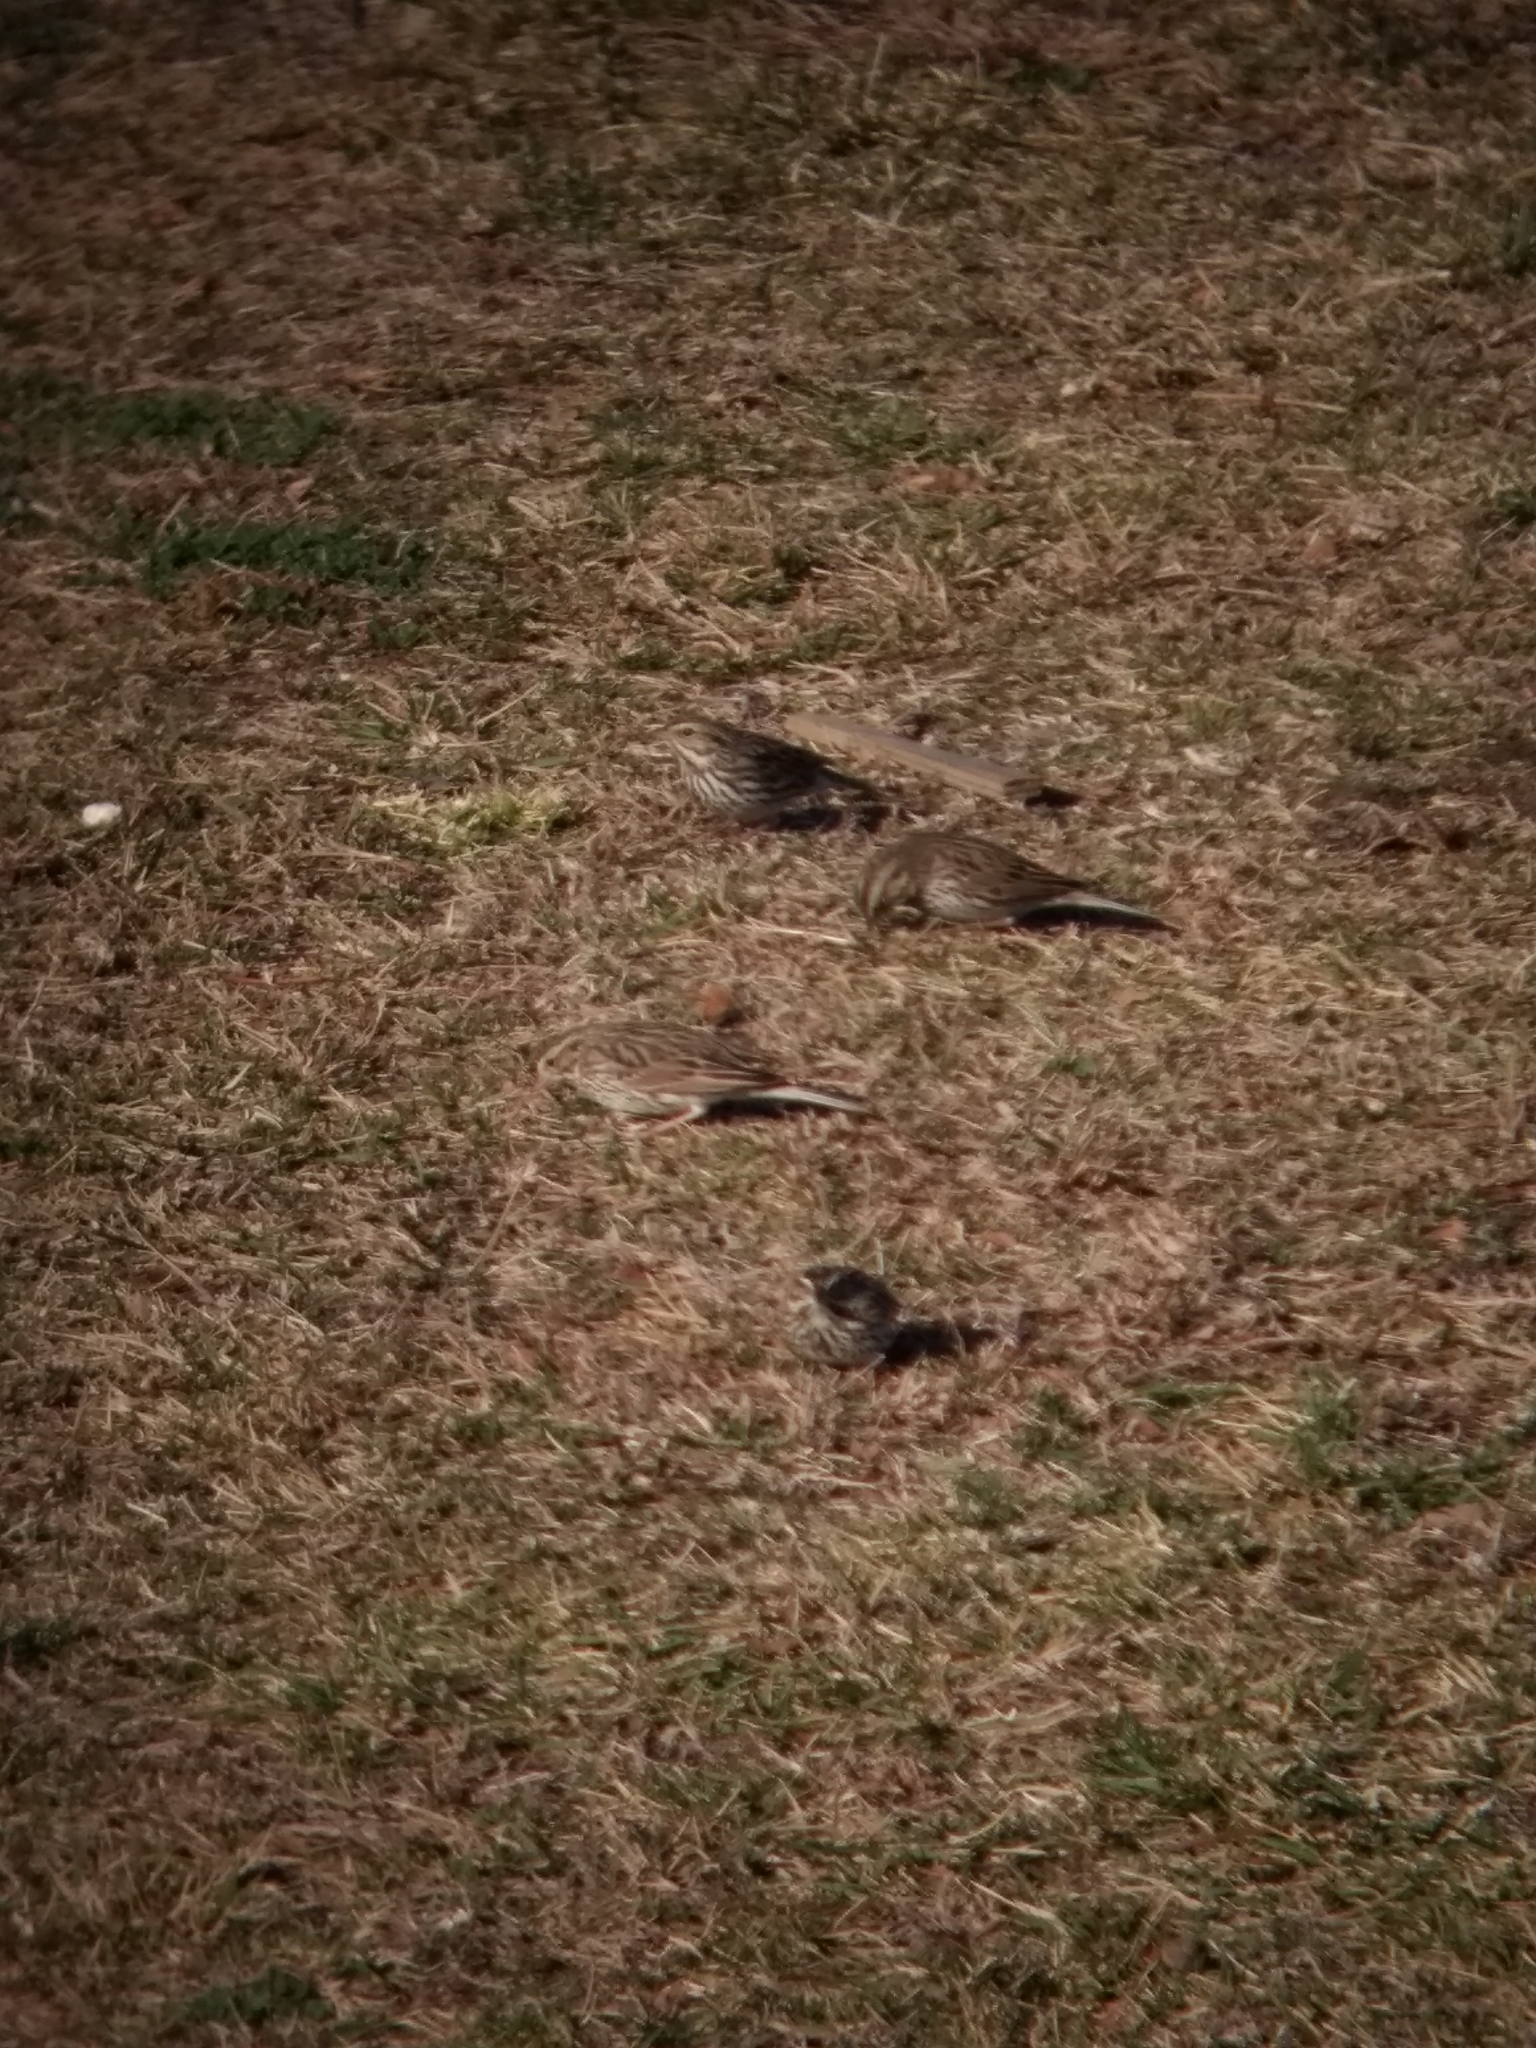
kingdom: Animalia
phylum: Chordata
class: Aves
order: Passeriformes
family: Passerellidae
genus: Passerculus
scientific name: Passerculus sandwichensis
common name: Savannah sparrow
